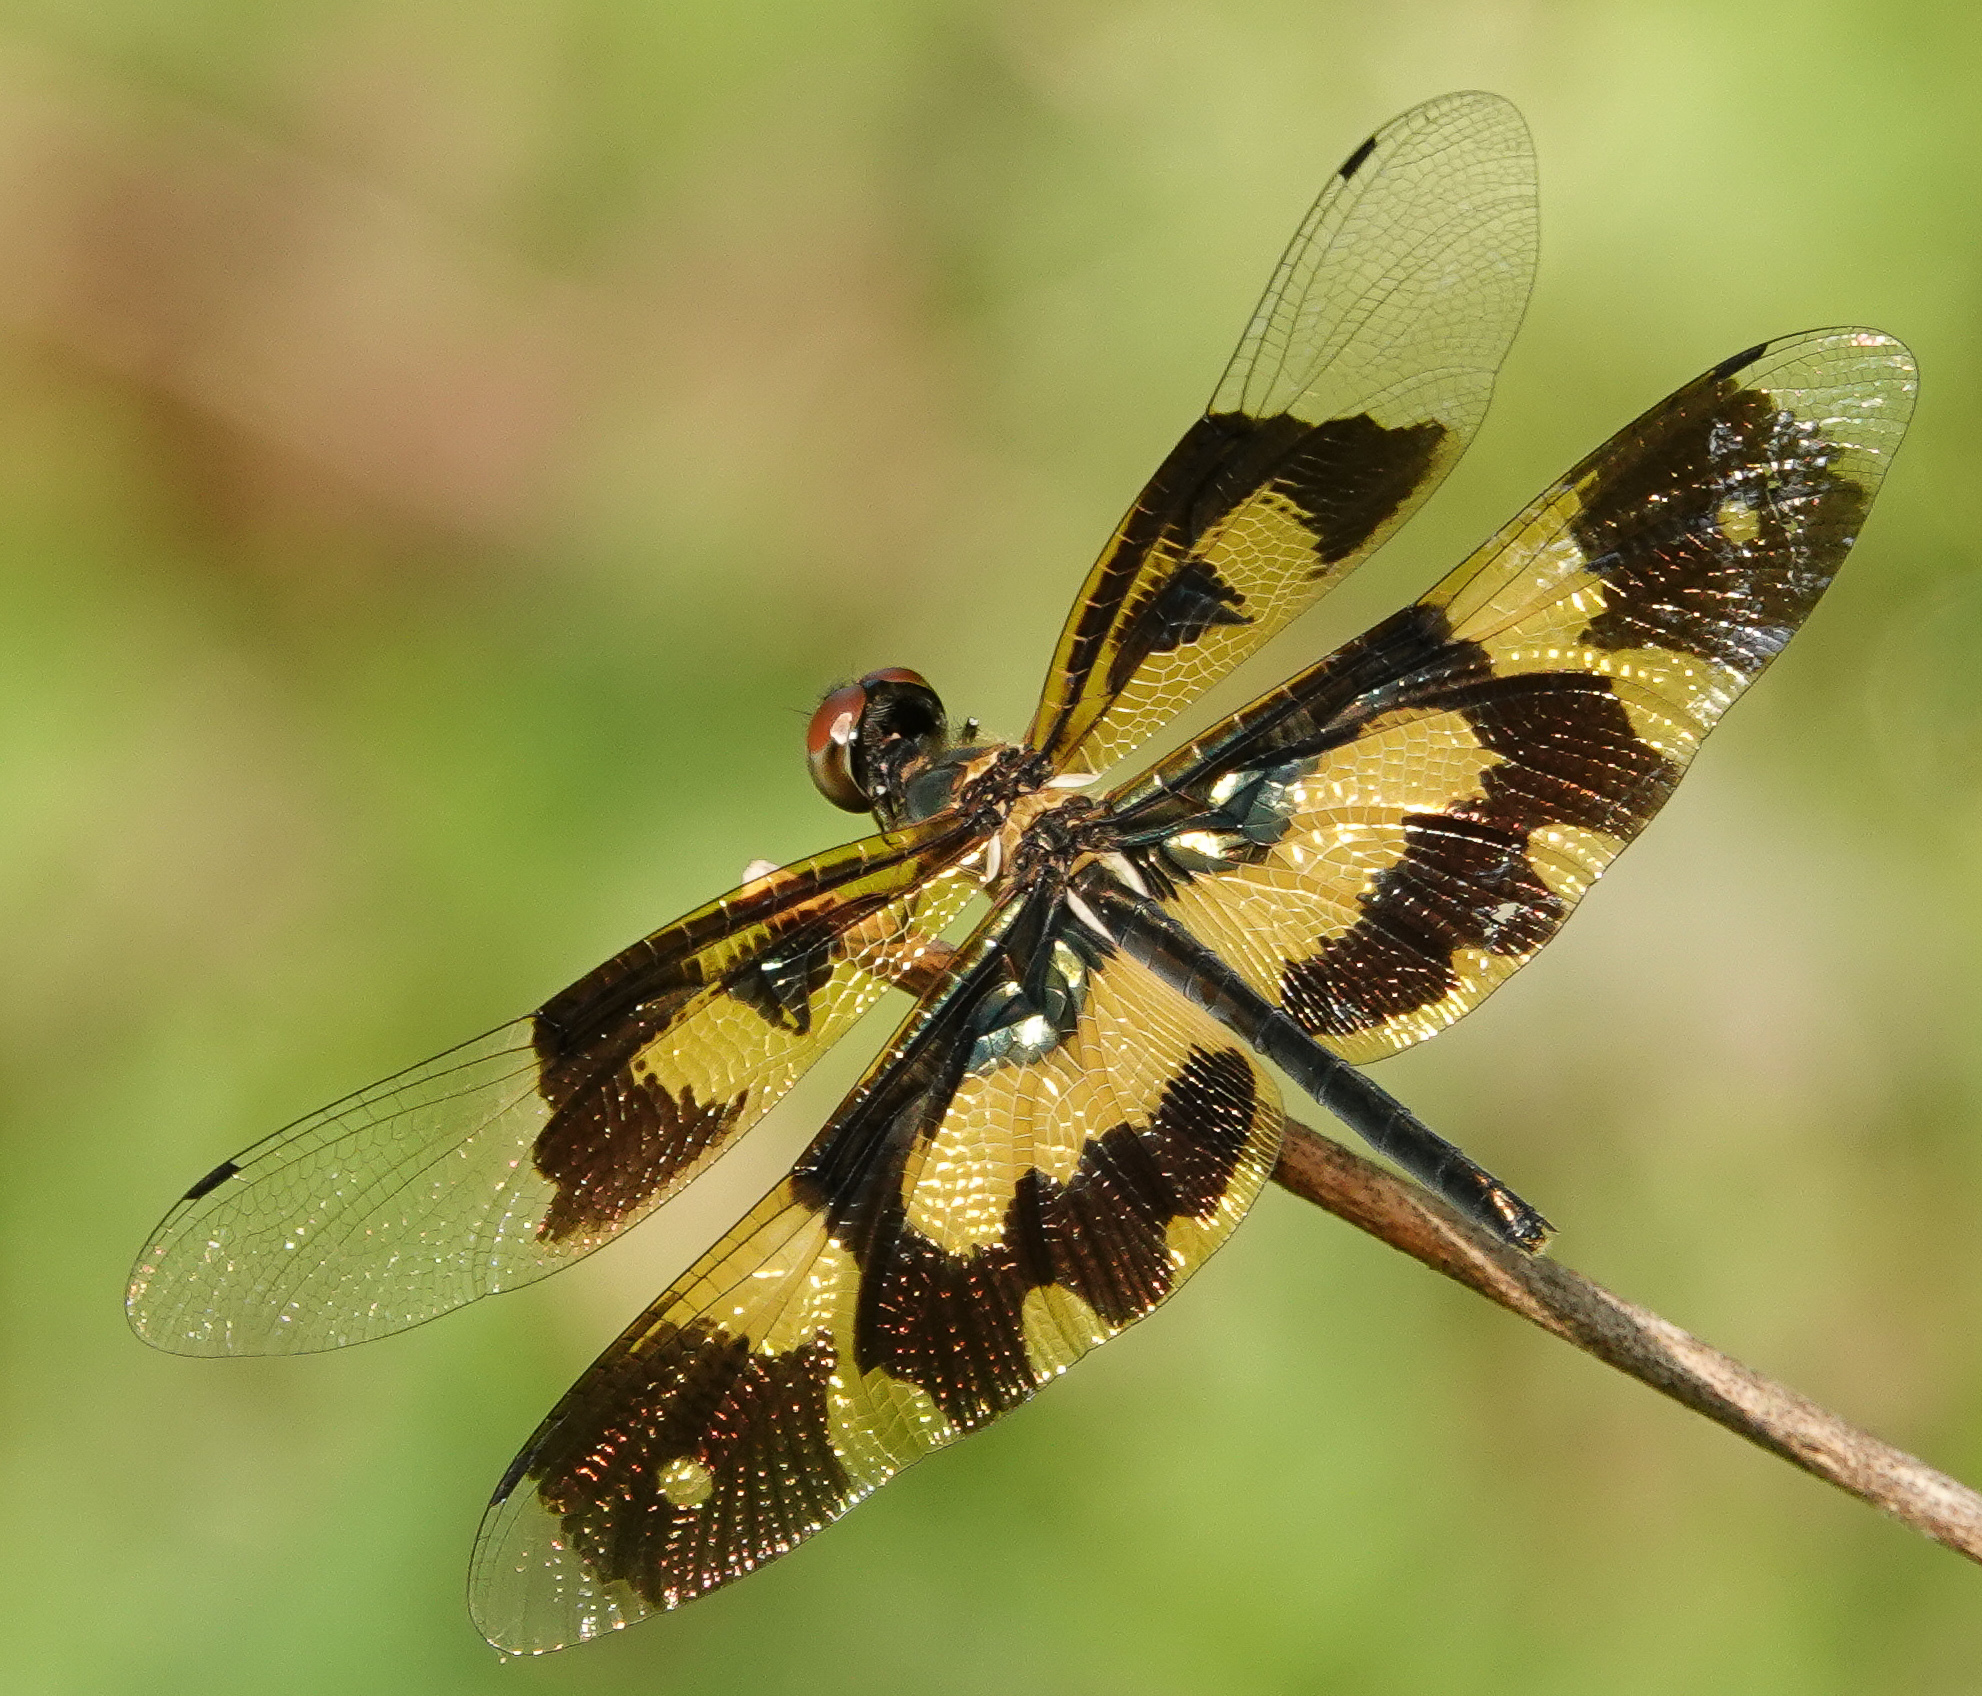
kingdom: Animalia
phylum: Arthropoda
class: Insecta
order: Odonata
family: Libellulidae
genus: Rhyothemis
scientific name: Rhyothemis variegata
